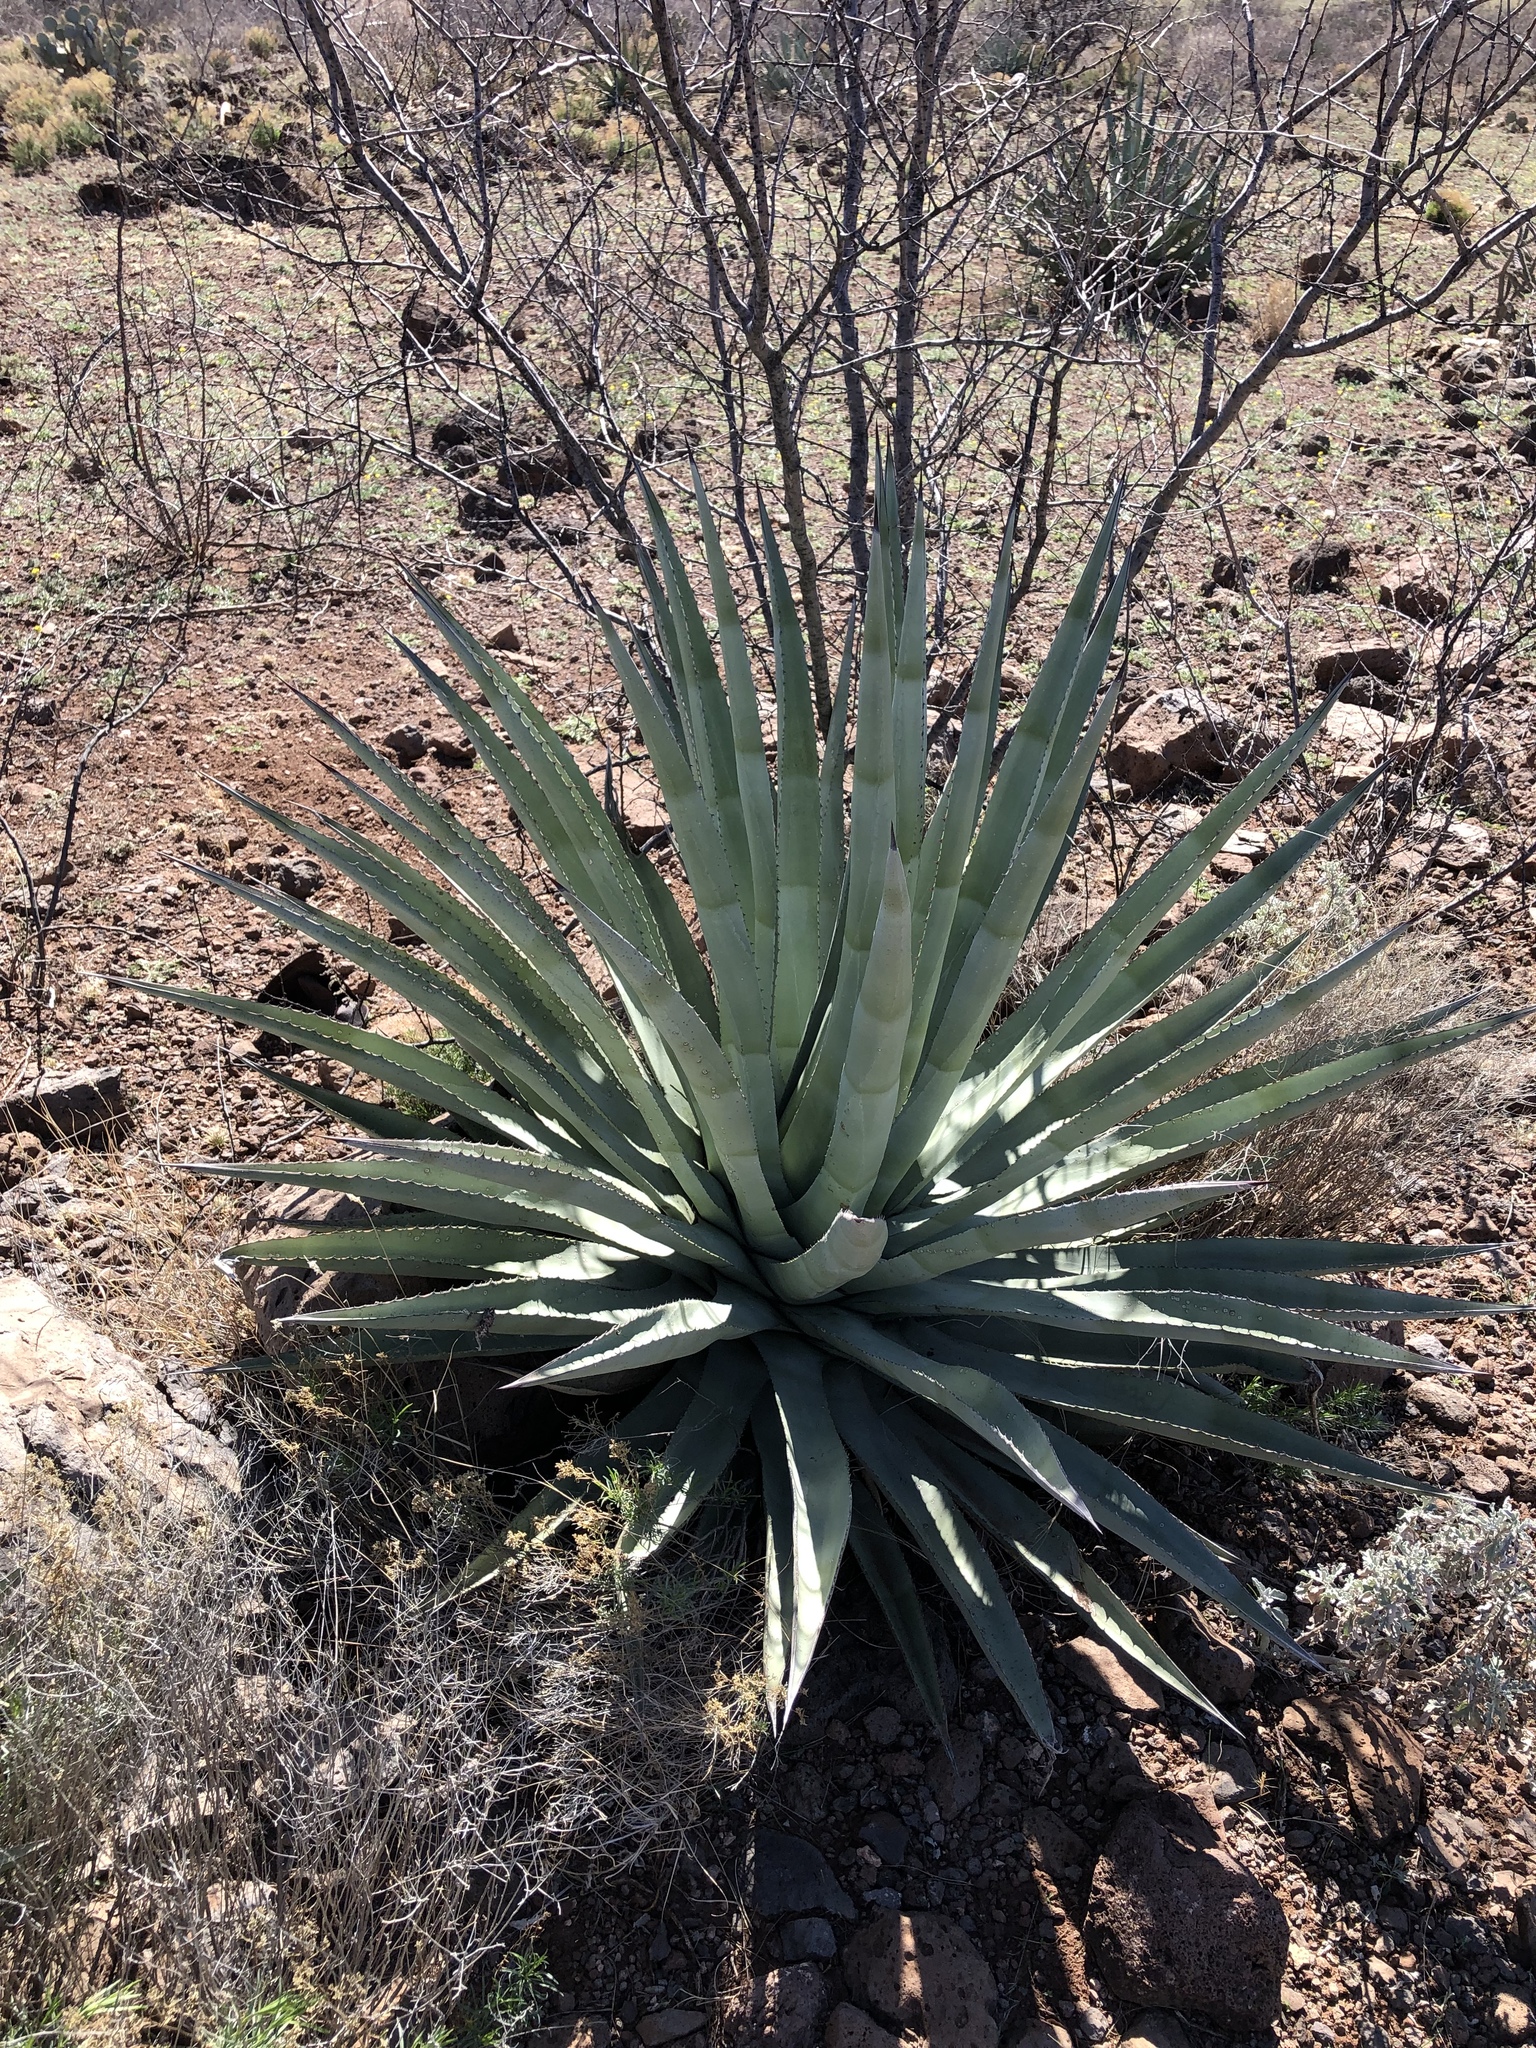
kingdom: Plantae
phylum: Tracheophyta
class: Liliopsida
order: Asparagales
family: Asparagaceae
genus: Agave
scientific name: Agave palmeri
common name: Palmer agave
